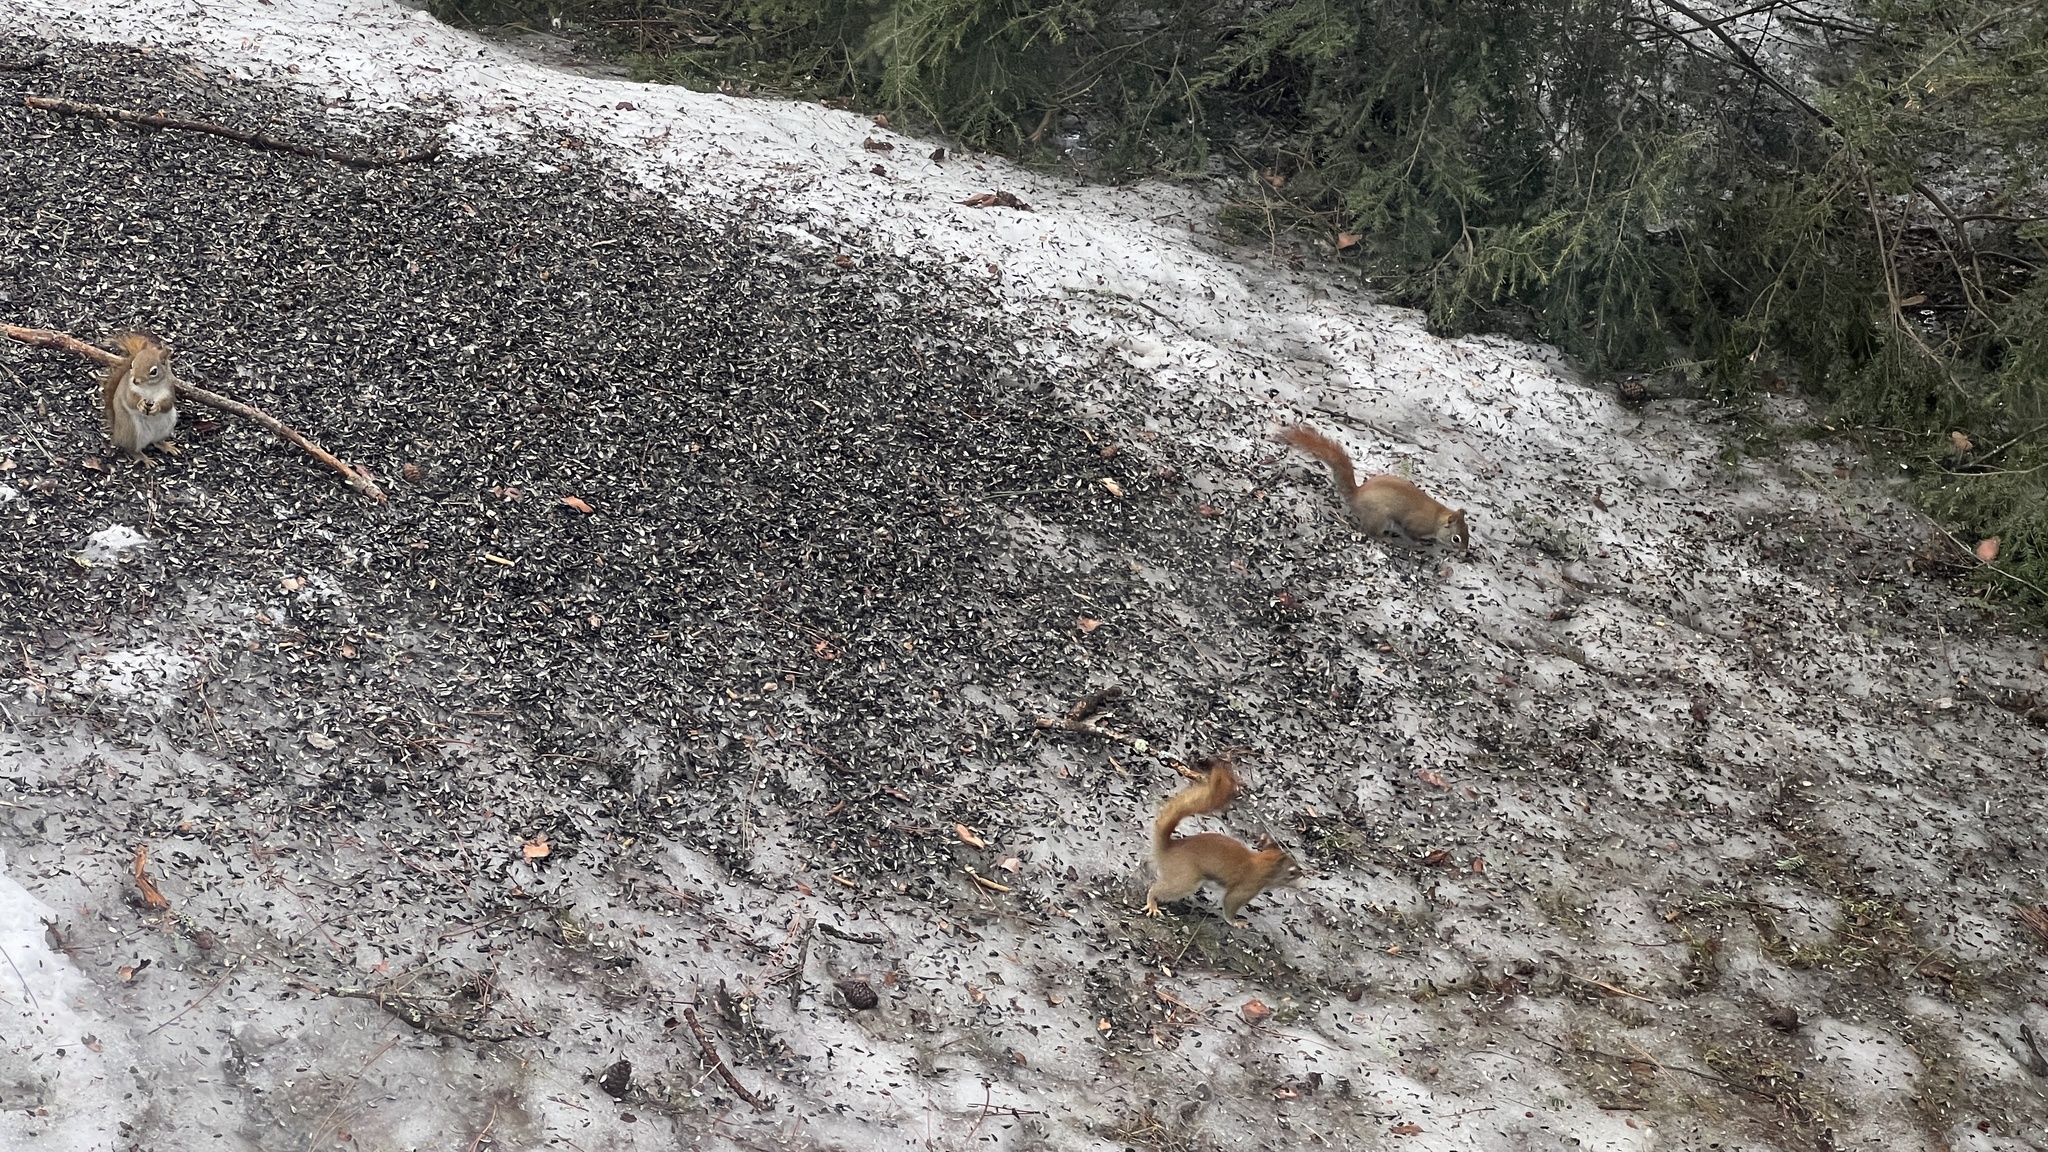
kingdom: Animalia
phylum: Chordata
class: Mammalia
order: Rodentia
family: Sciuridae
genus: Tamiasciurus
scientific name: Tamiasciurus hudsonicus
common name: Red squirrel
